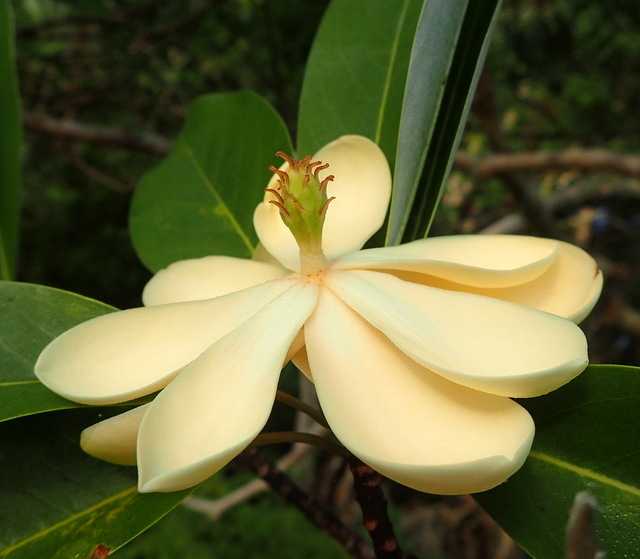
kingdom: Plantae
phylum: Tracheophyta
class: Magnoliopsida
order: Magnoliales
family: Magnoliaceae
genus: Magnolia
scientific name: Magnolia virginiana
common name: Swamp bay
